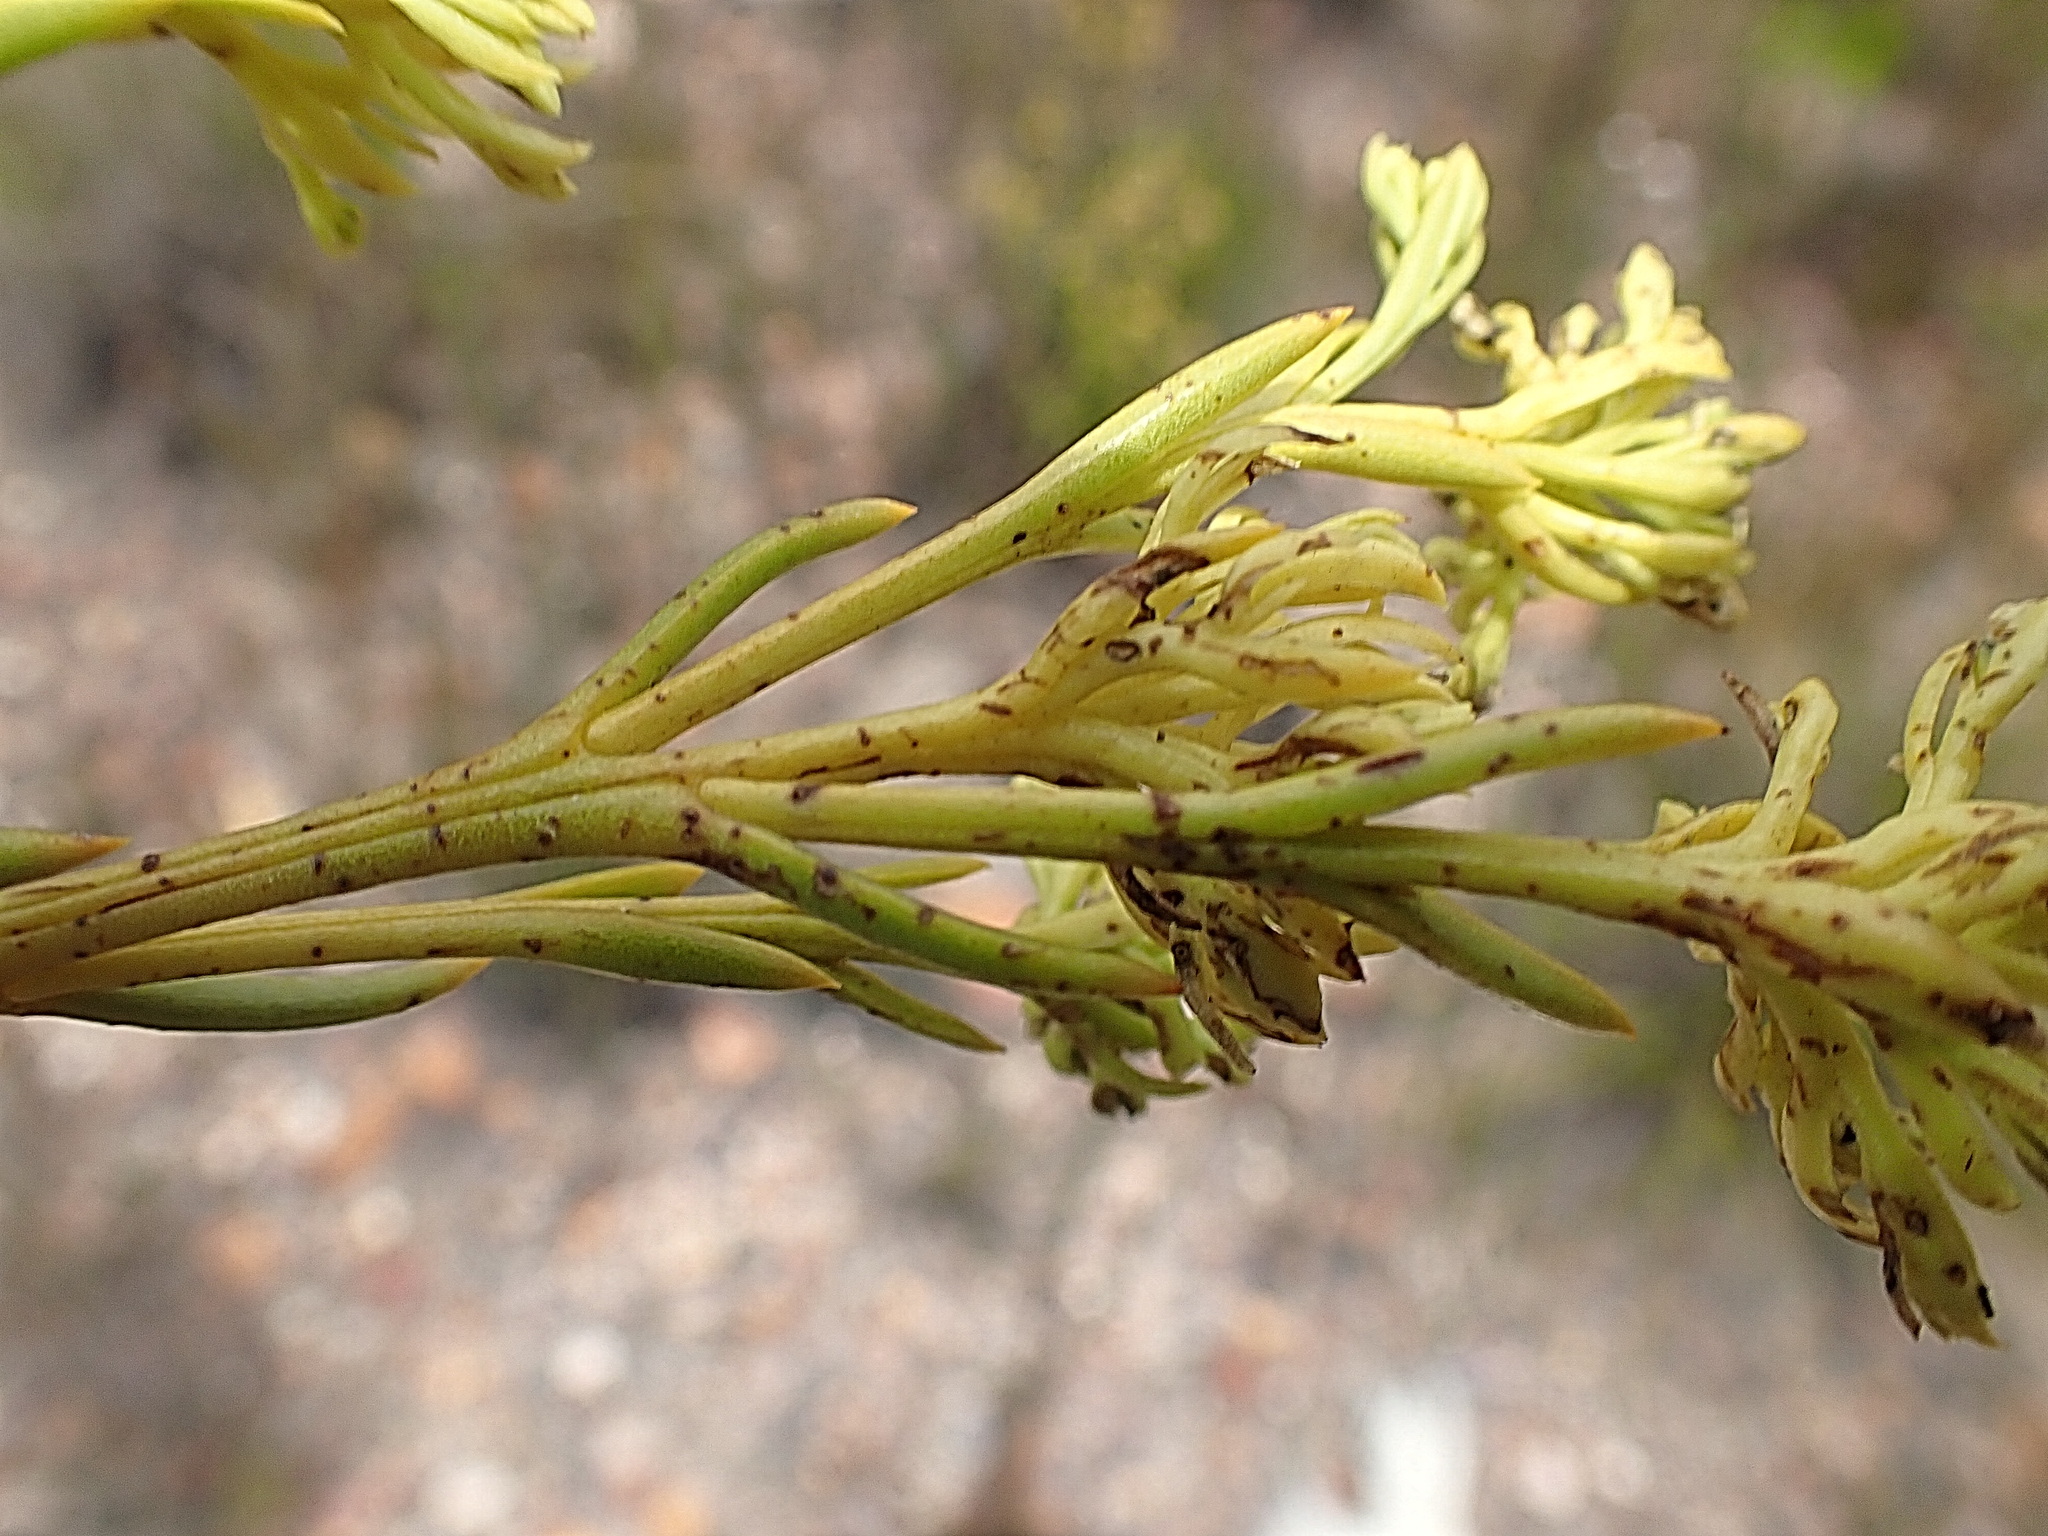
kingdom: Plantae
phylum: Tracheophyta
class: Magnoliopsida
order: Santalales
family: Thesiaceae
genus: Thesium
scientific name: Thesium strictum
